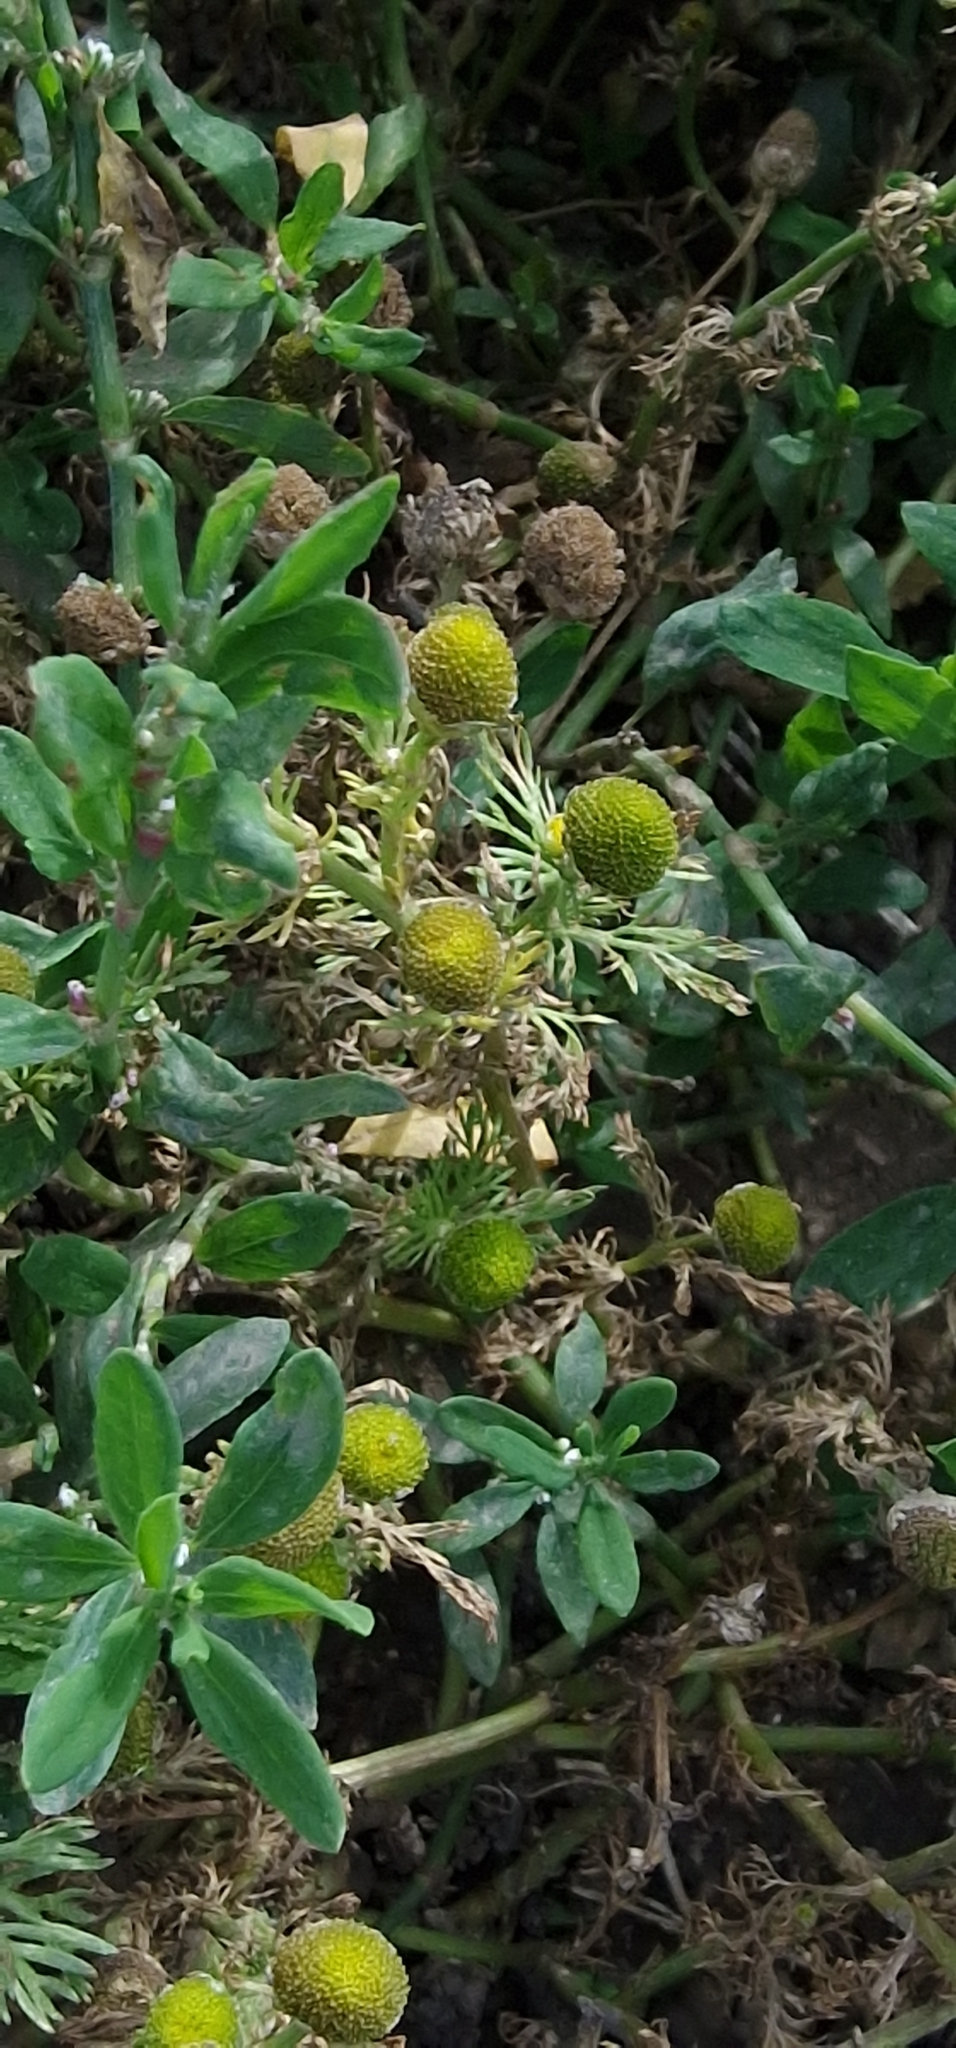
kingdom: Plantae
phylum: Tracheophyta
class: Magnoliopsida
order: Asterales
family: Asteraceae
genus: Matricaria
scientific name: Matricaria discoidea
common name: Disc mayweed
